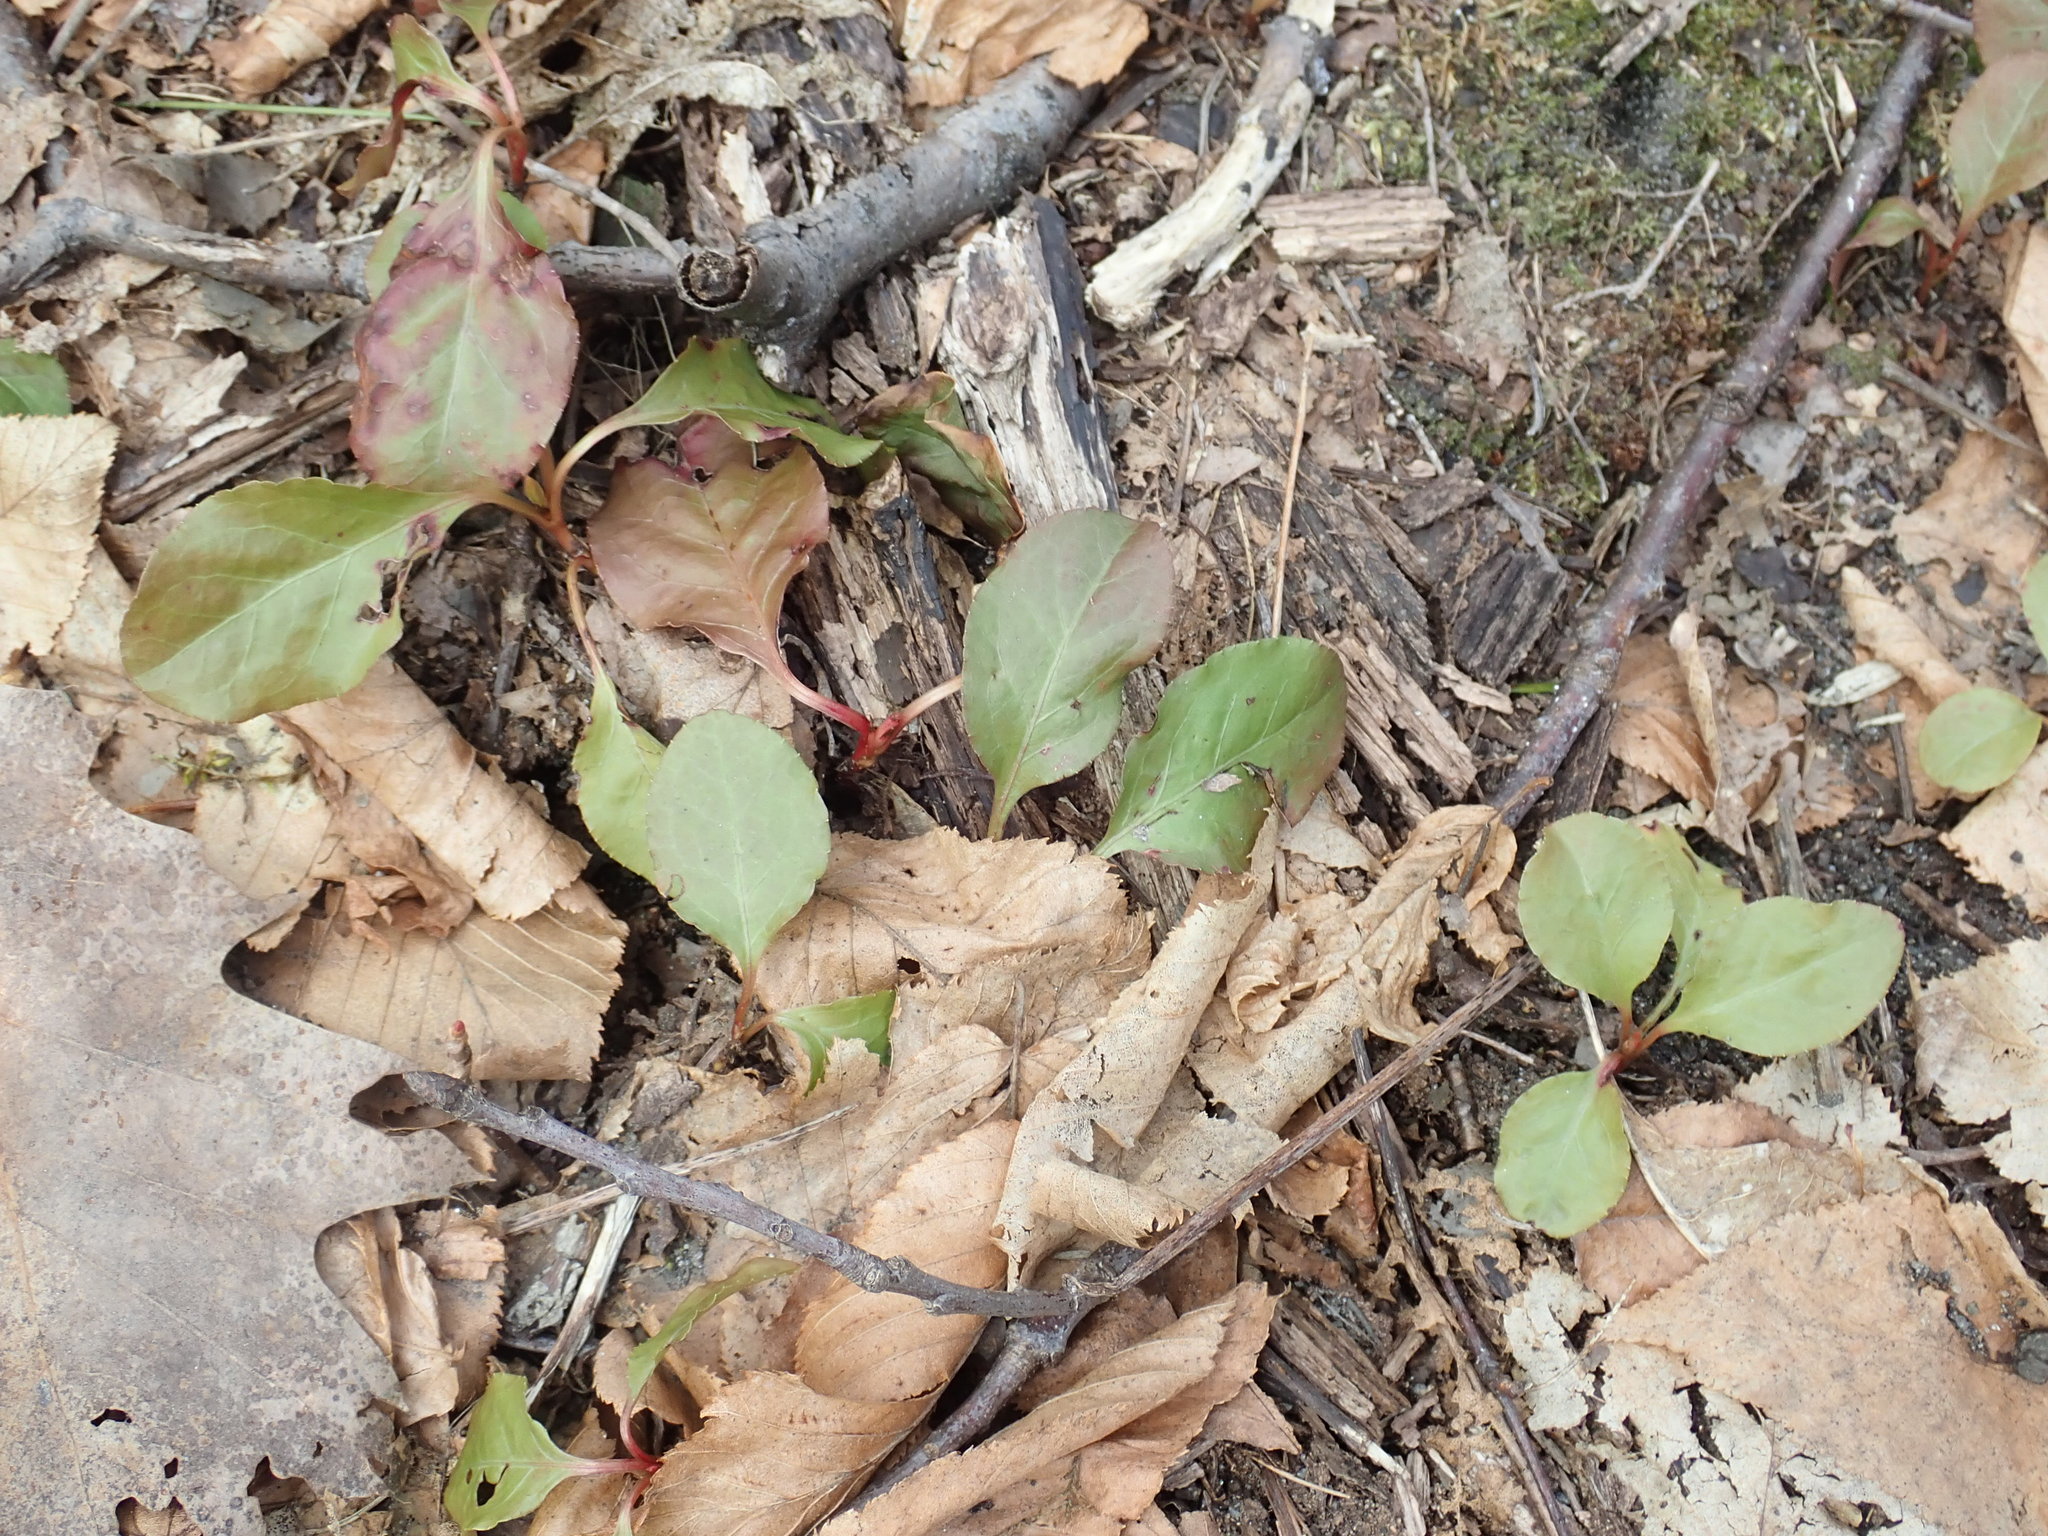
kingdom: Plantae
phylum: Tracheophyta
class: Magnoliopsida
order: Ericales
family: Ericaceae
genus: Pyrola
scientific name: Pyrola elliptica
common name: Shinleaf
